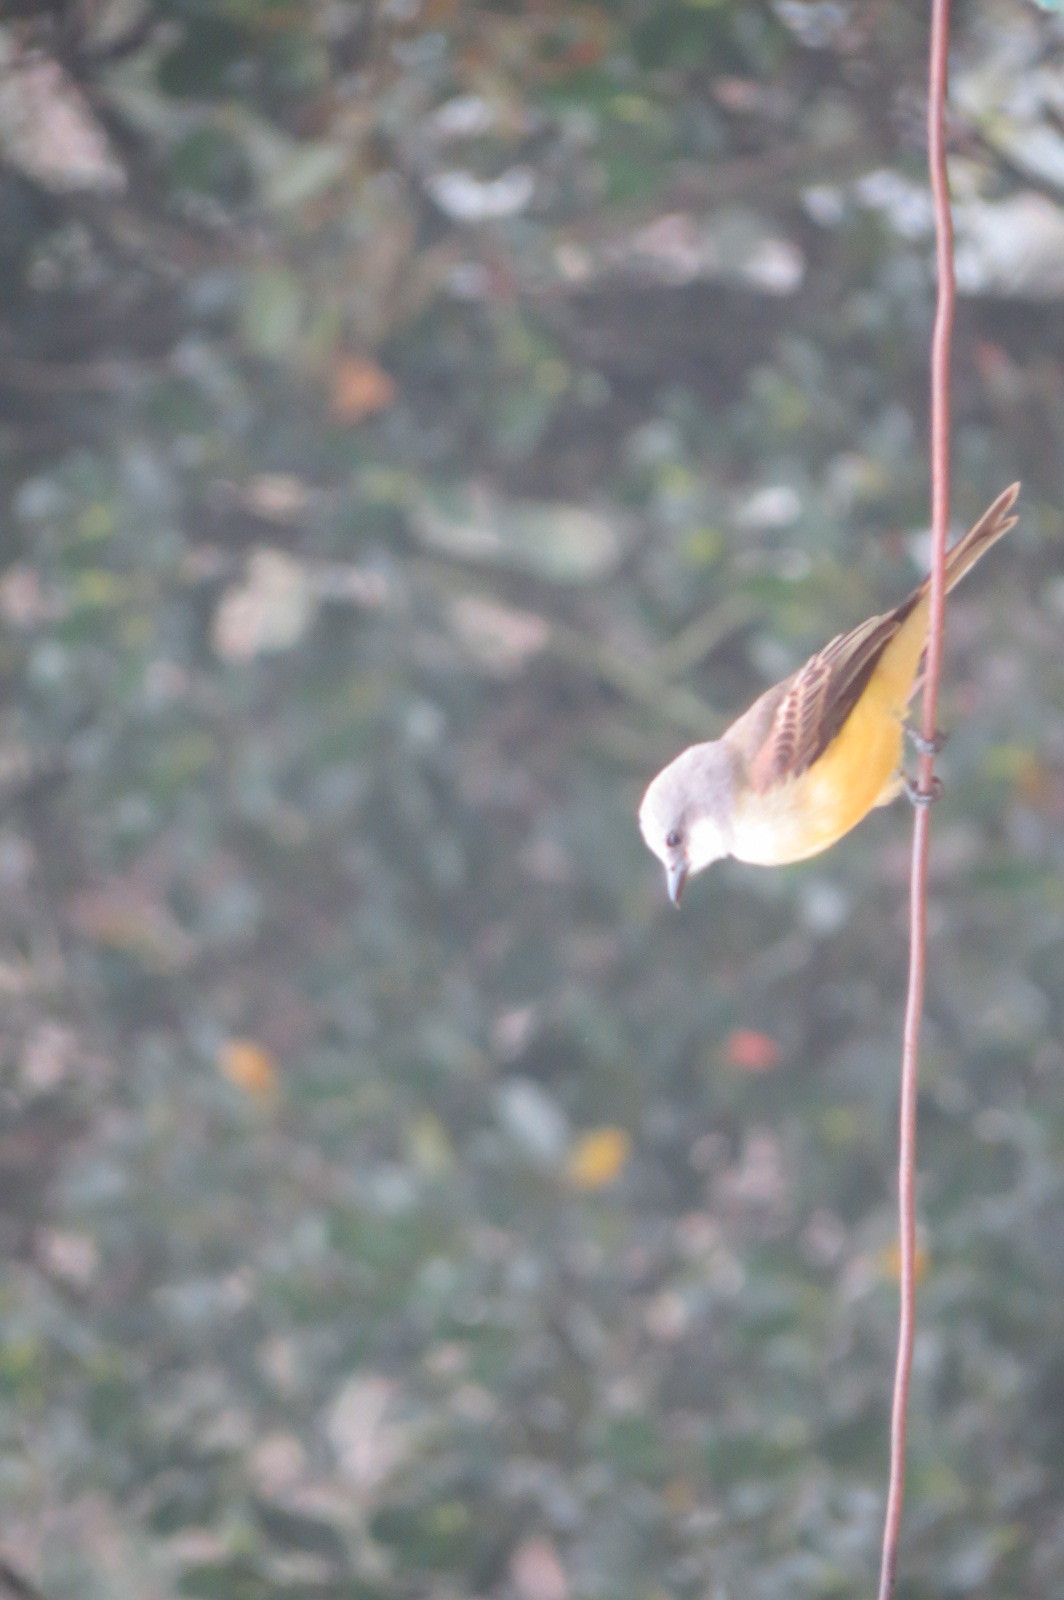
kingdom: Animalia
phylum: Chordata
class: Aves
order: Passeriformes
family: Tyrannidae
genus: Tyrannus
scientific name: Tyrannus melancholicus
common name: Tropical kingbird
